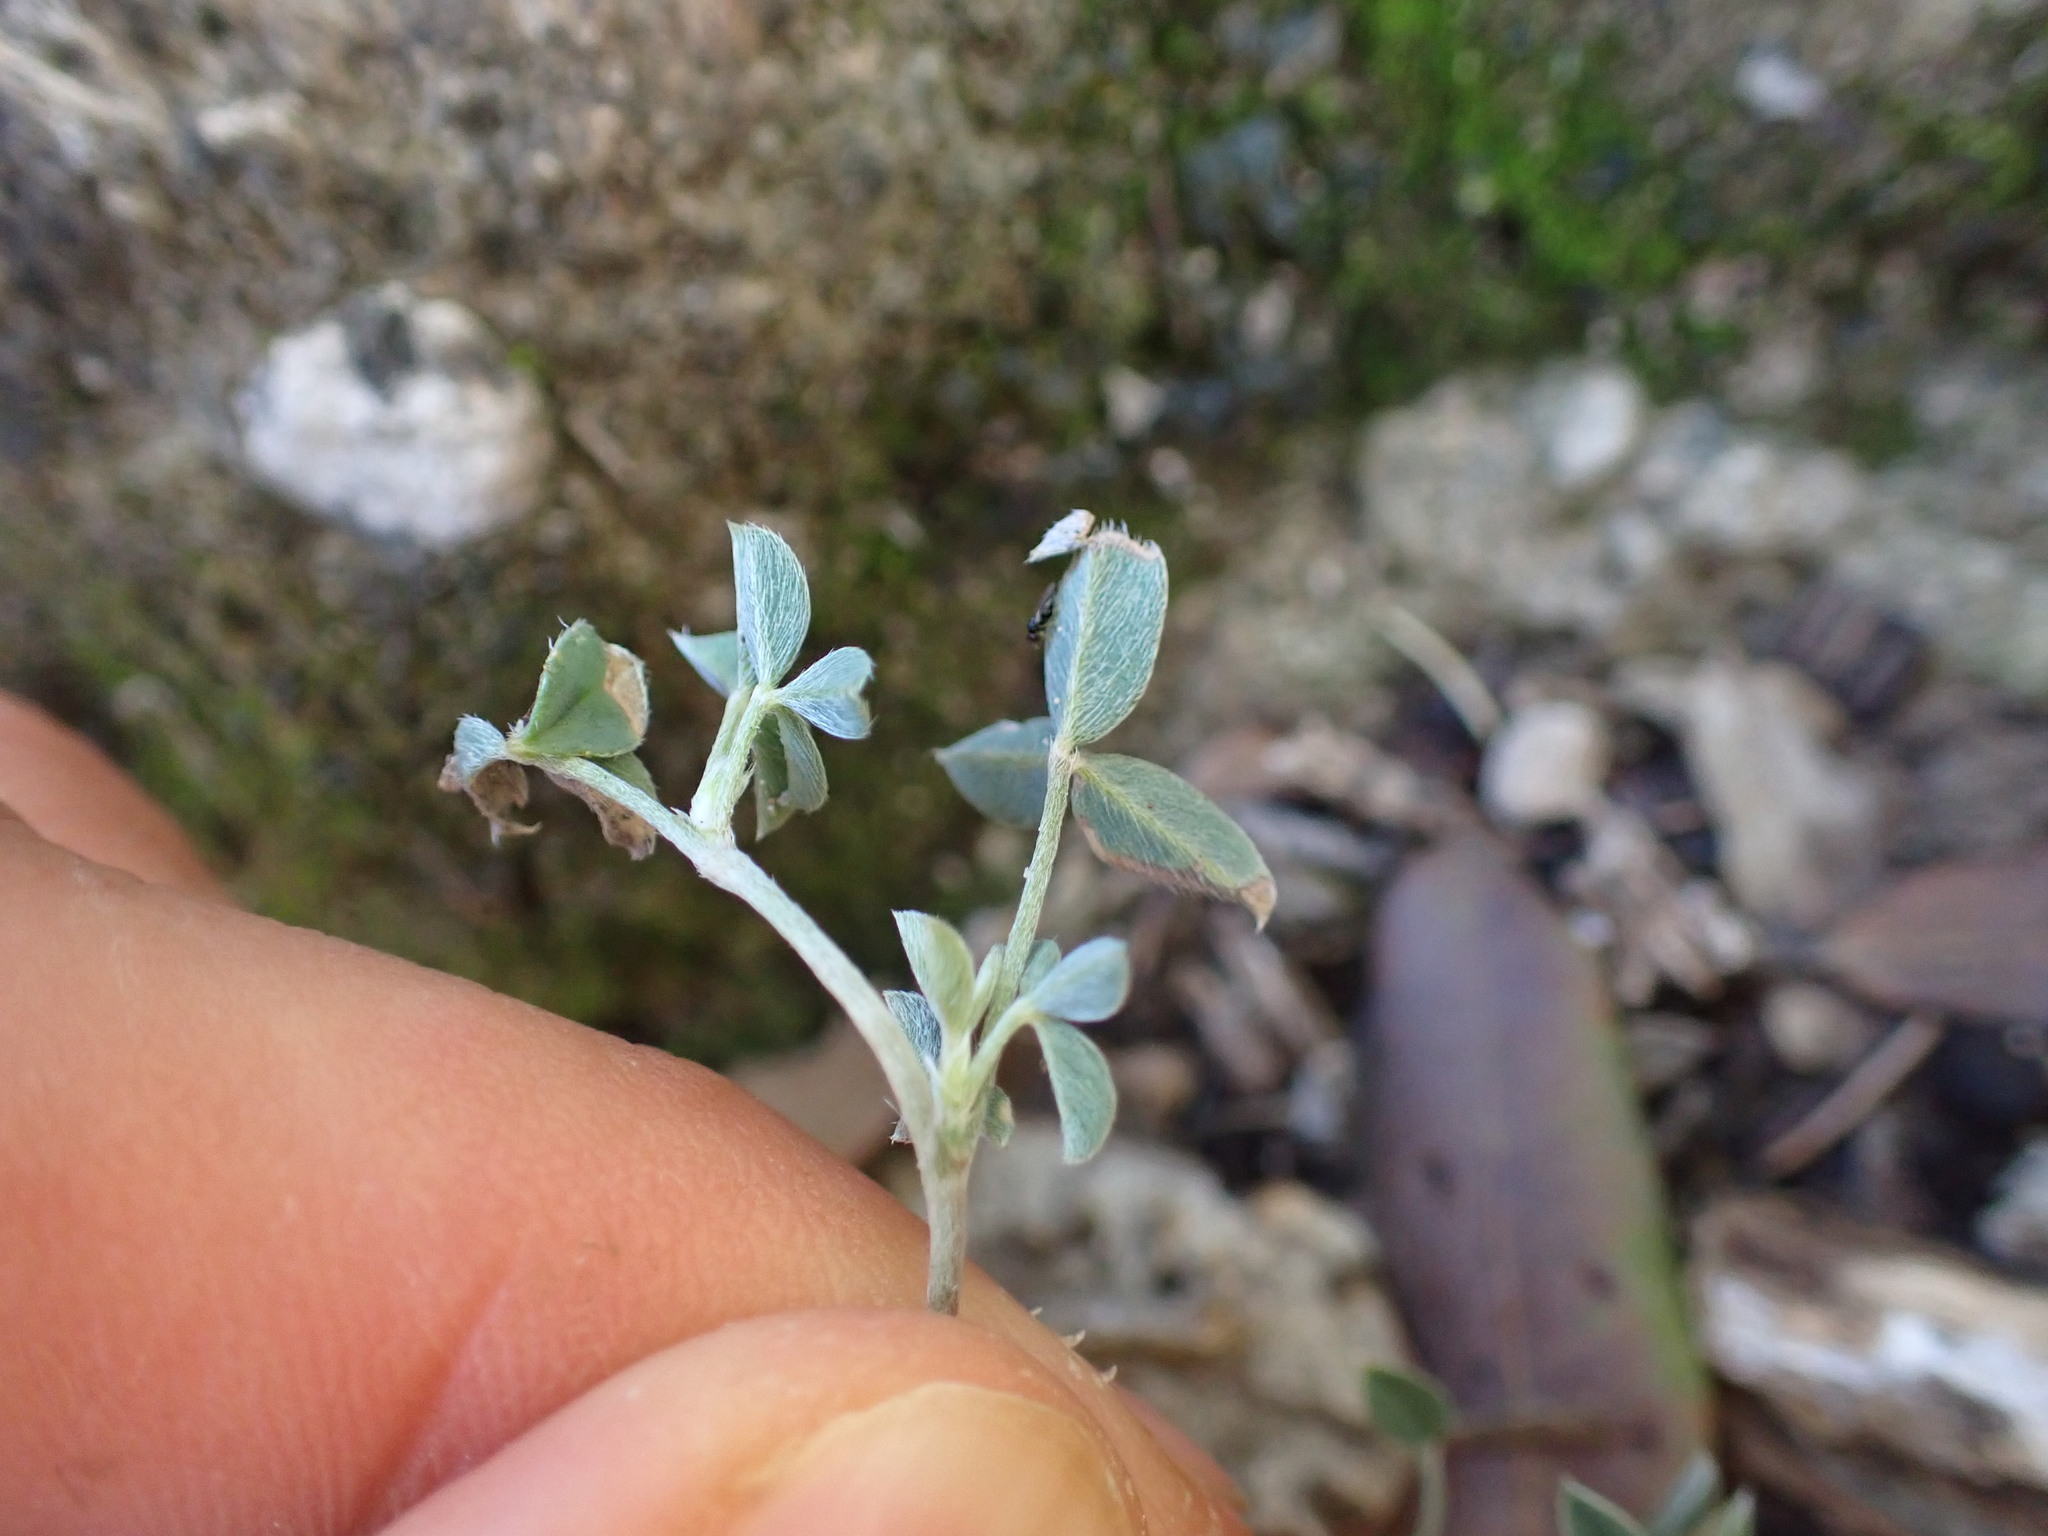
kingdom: Plantae
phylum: Tracheophyta
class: Magnoliopsida
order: Fabales
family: Fabaceae
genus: Argyrolobium
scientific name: Argyrolobium zanonii
